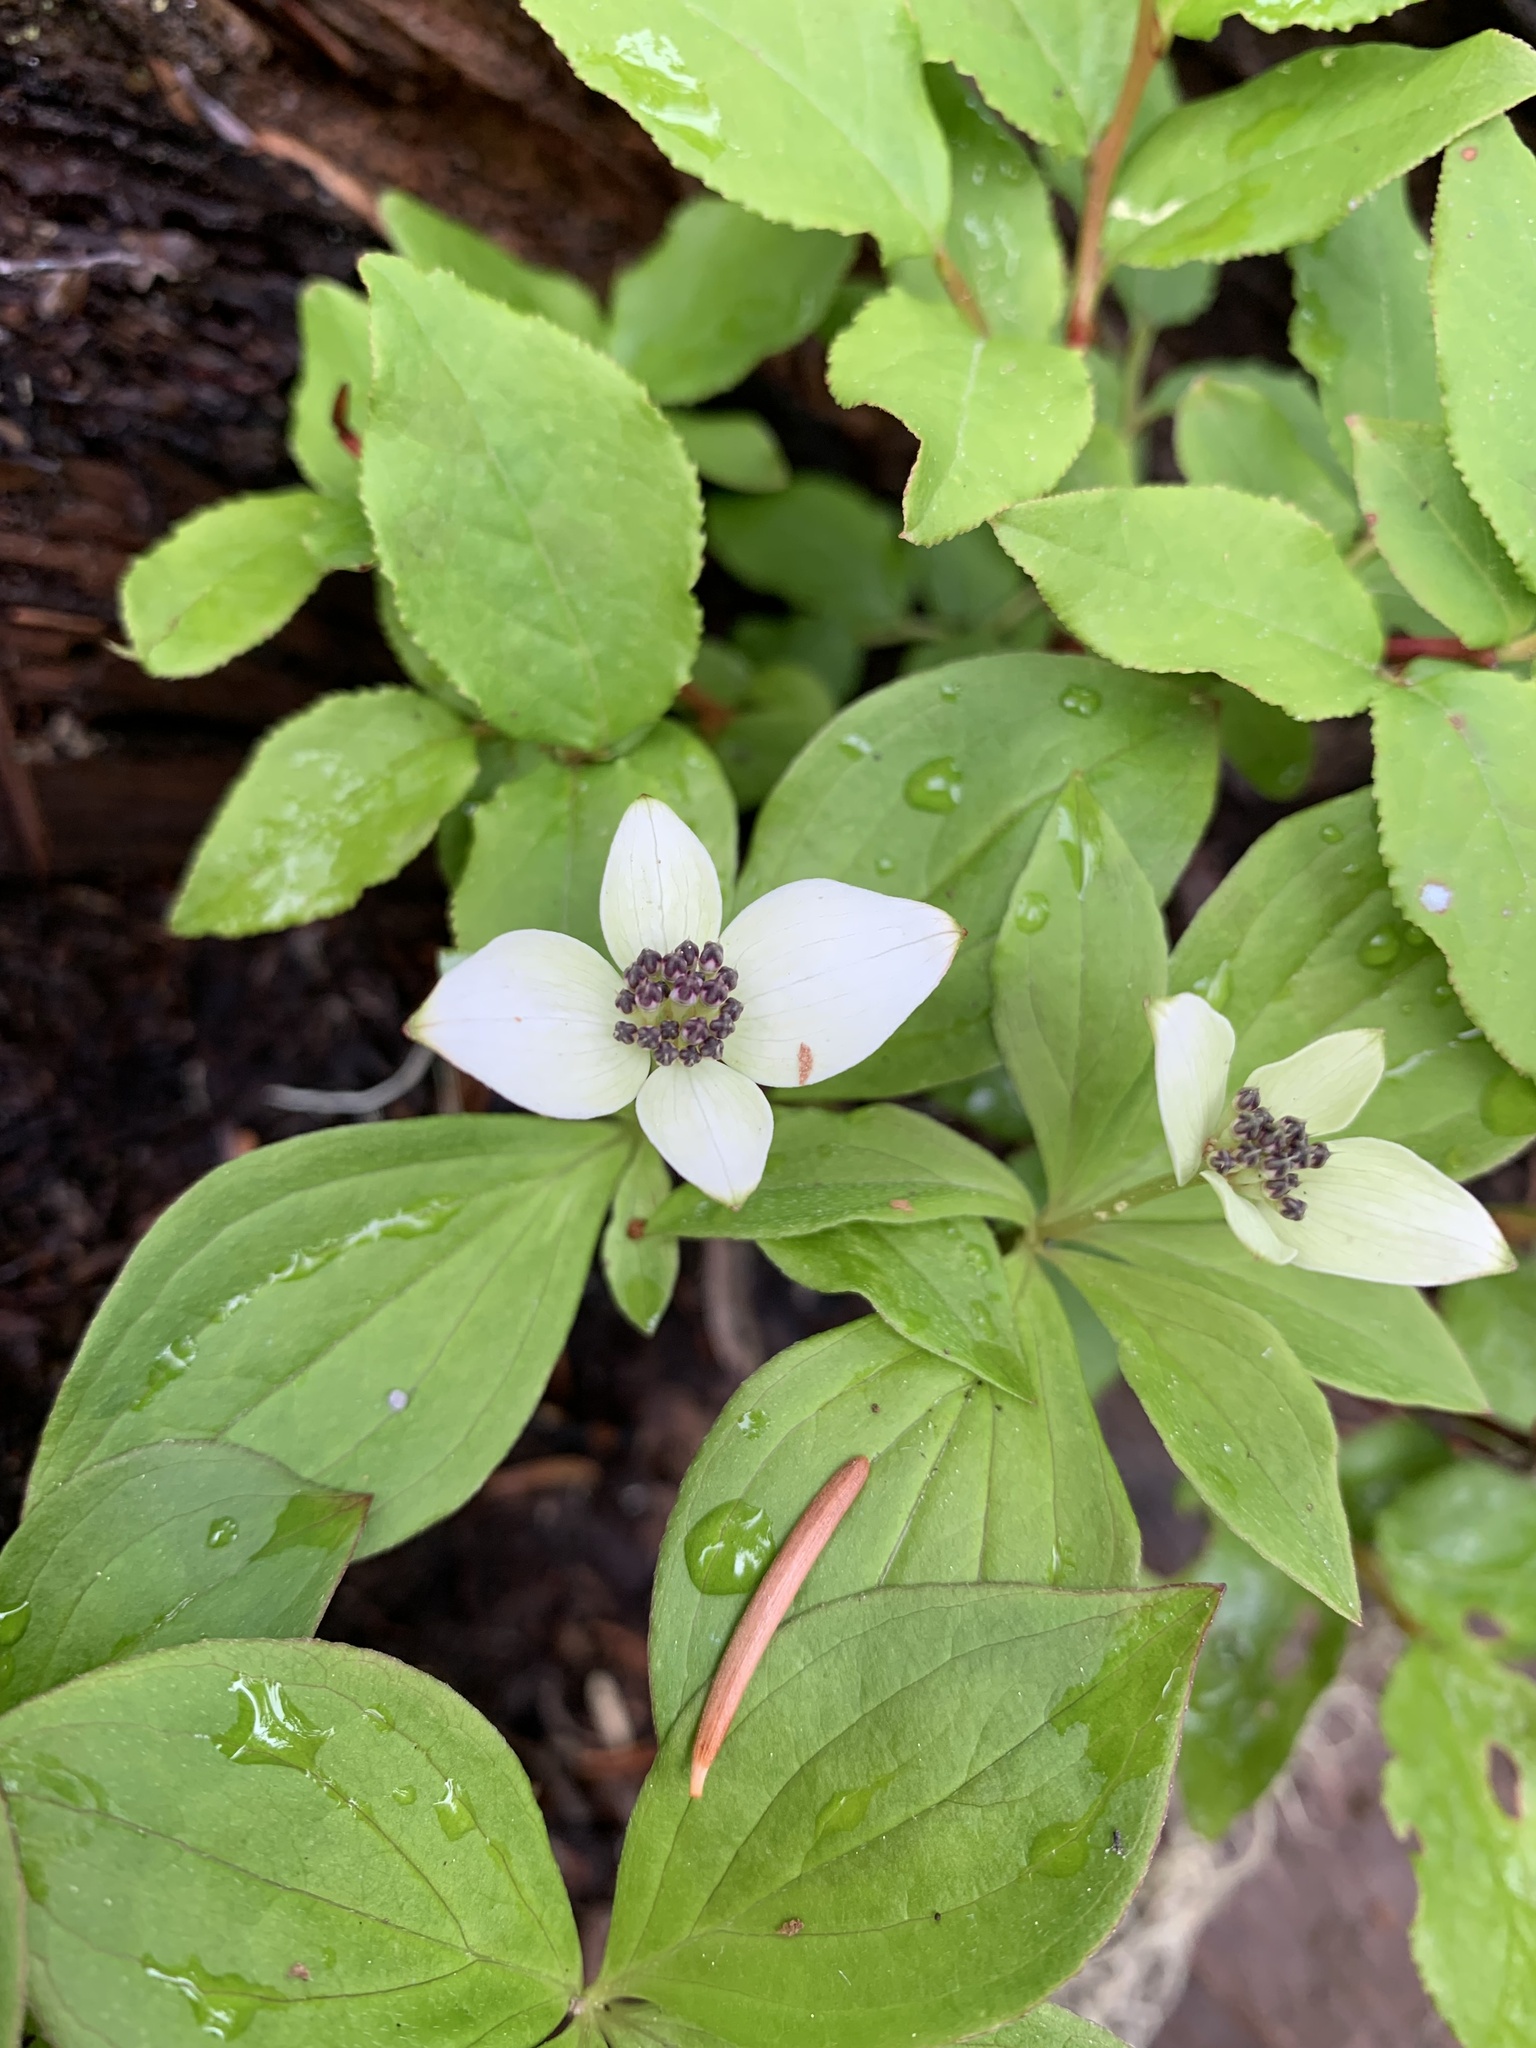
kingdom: Plantae
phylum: Tracheophyta
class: Magnoliopsida
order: Cornales
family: Cornaceae
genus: Cornus
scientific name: Cornus unalaschkensis
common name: Alaska bunchberry
